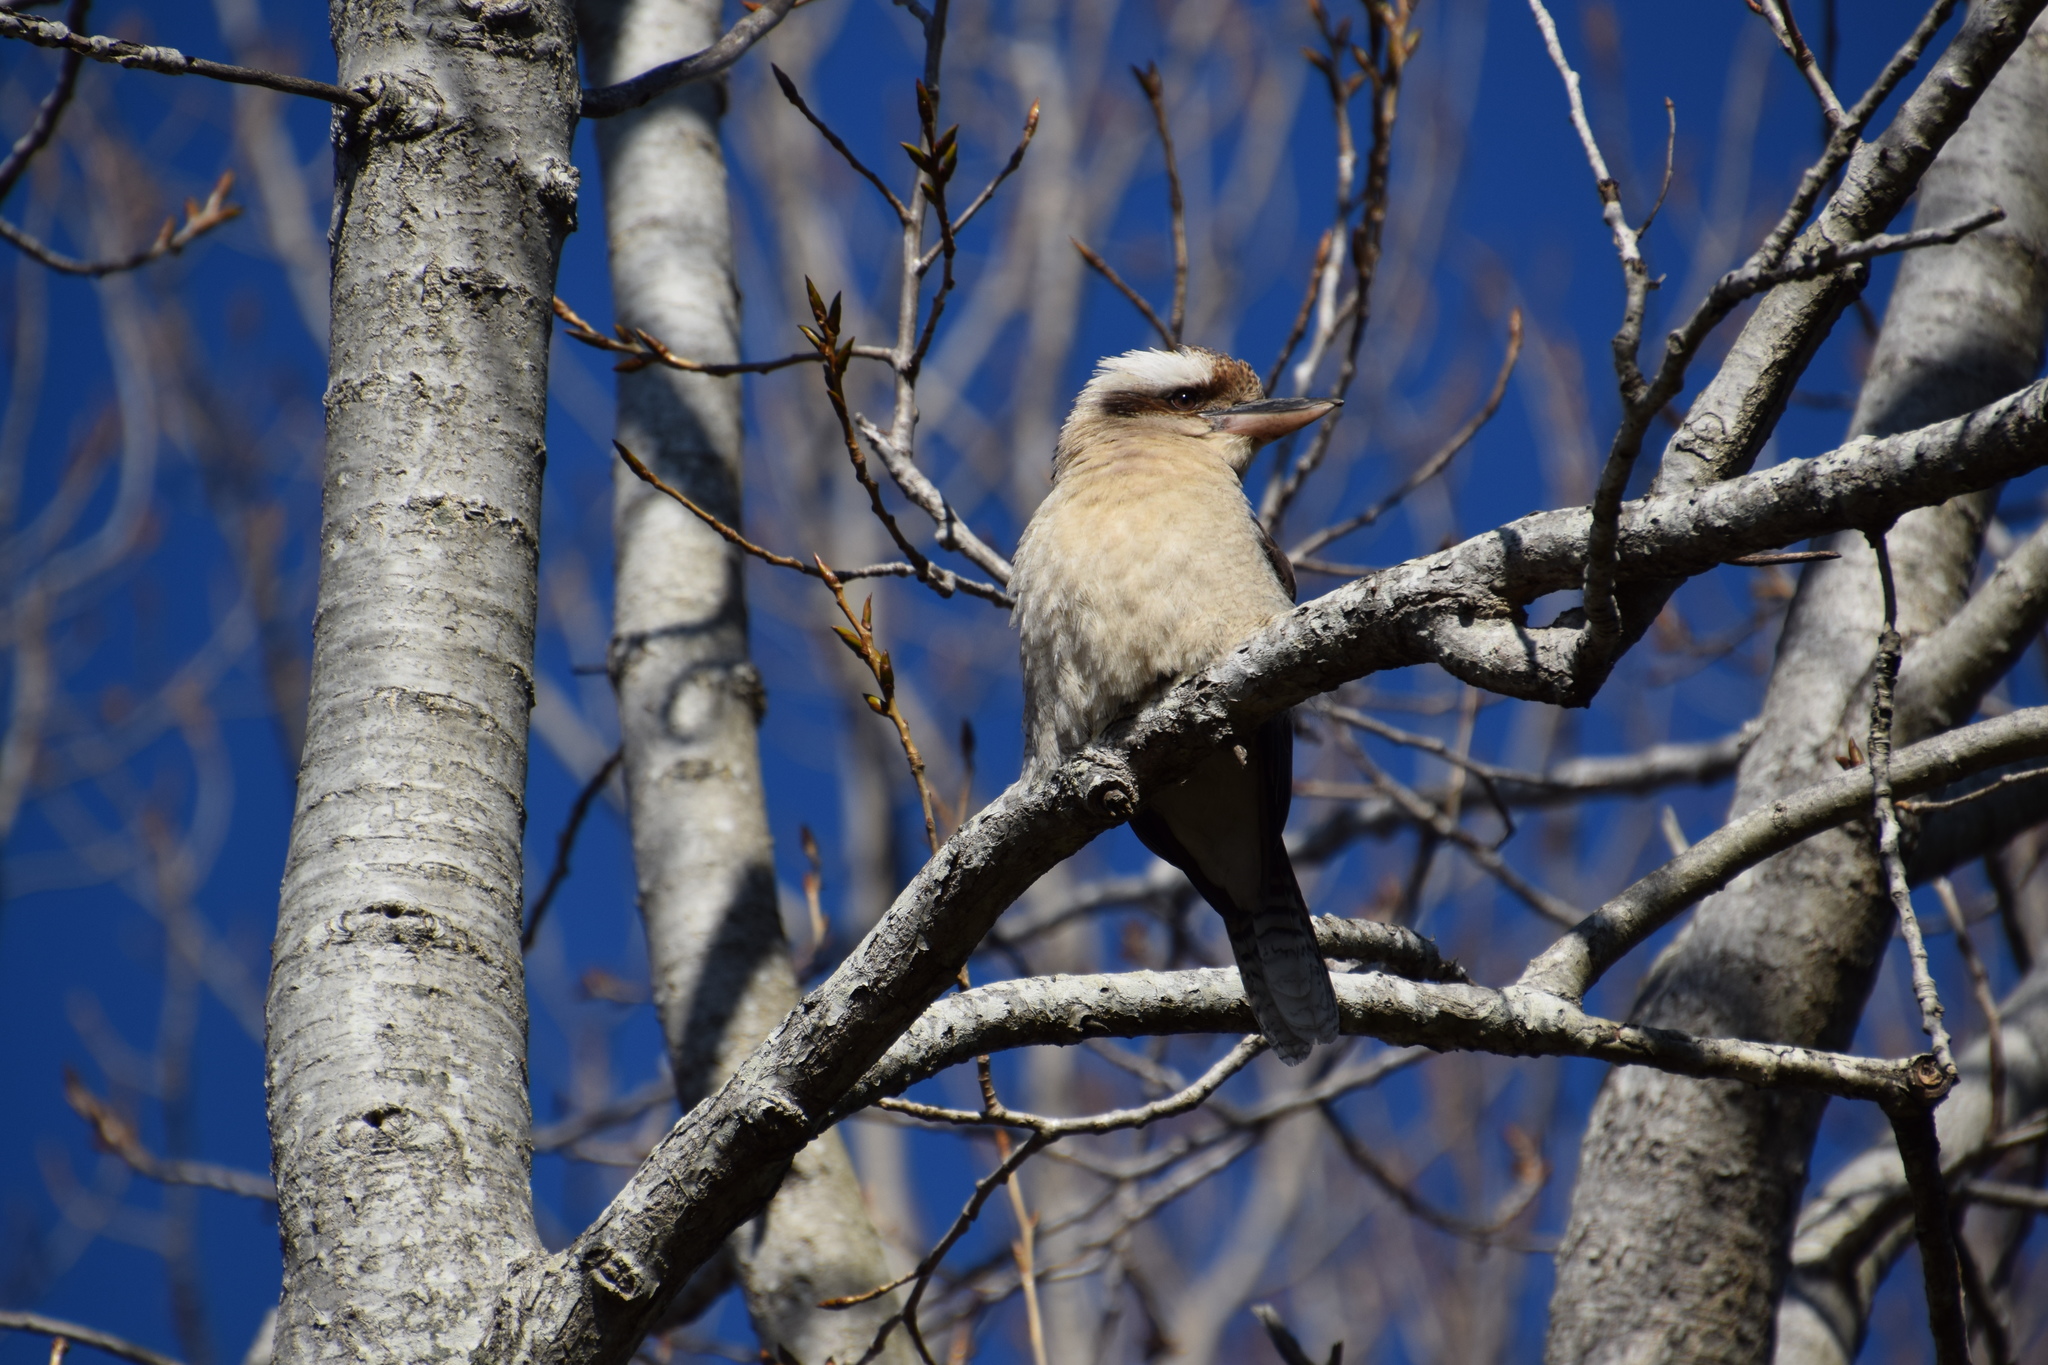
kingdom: Animalia
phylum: Chordata
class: Aves
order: Coraciiformes
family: Alcedinidae
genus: Dacelo
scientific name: Dacelo novaeguineae
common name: Laughing kookaburra
